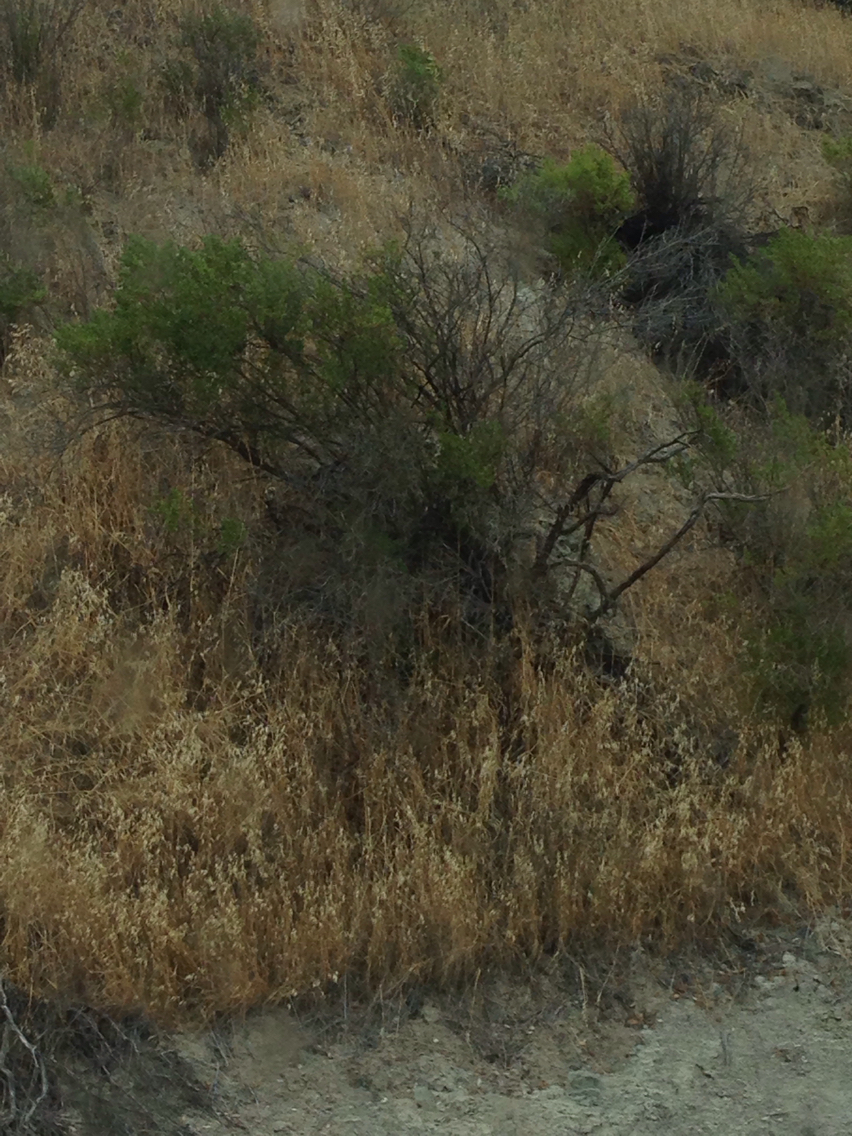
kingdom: Plantae
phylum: Tracheophyta
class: Magnoliopsida
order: Asterales
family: Asteraceae
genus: Baccharis
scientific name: Baccharis pilularis
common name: Coyotebrush
